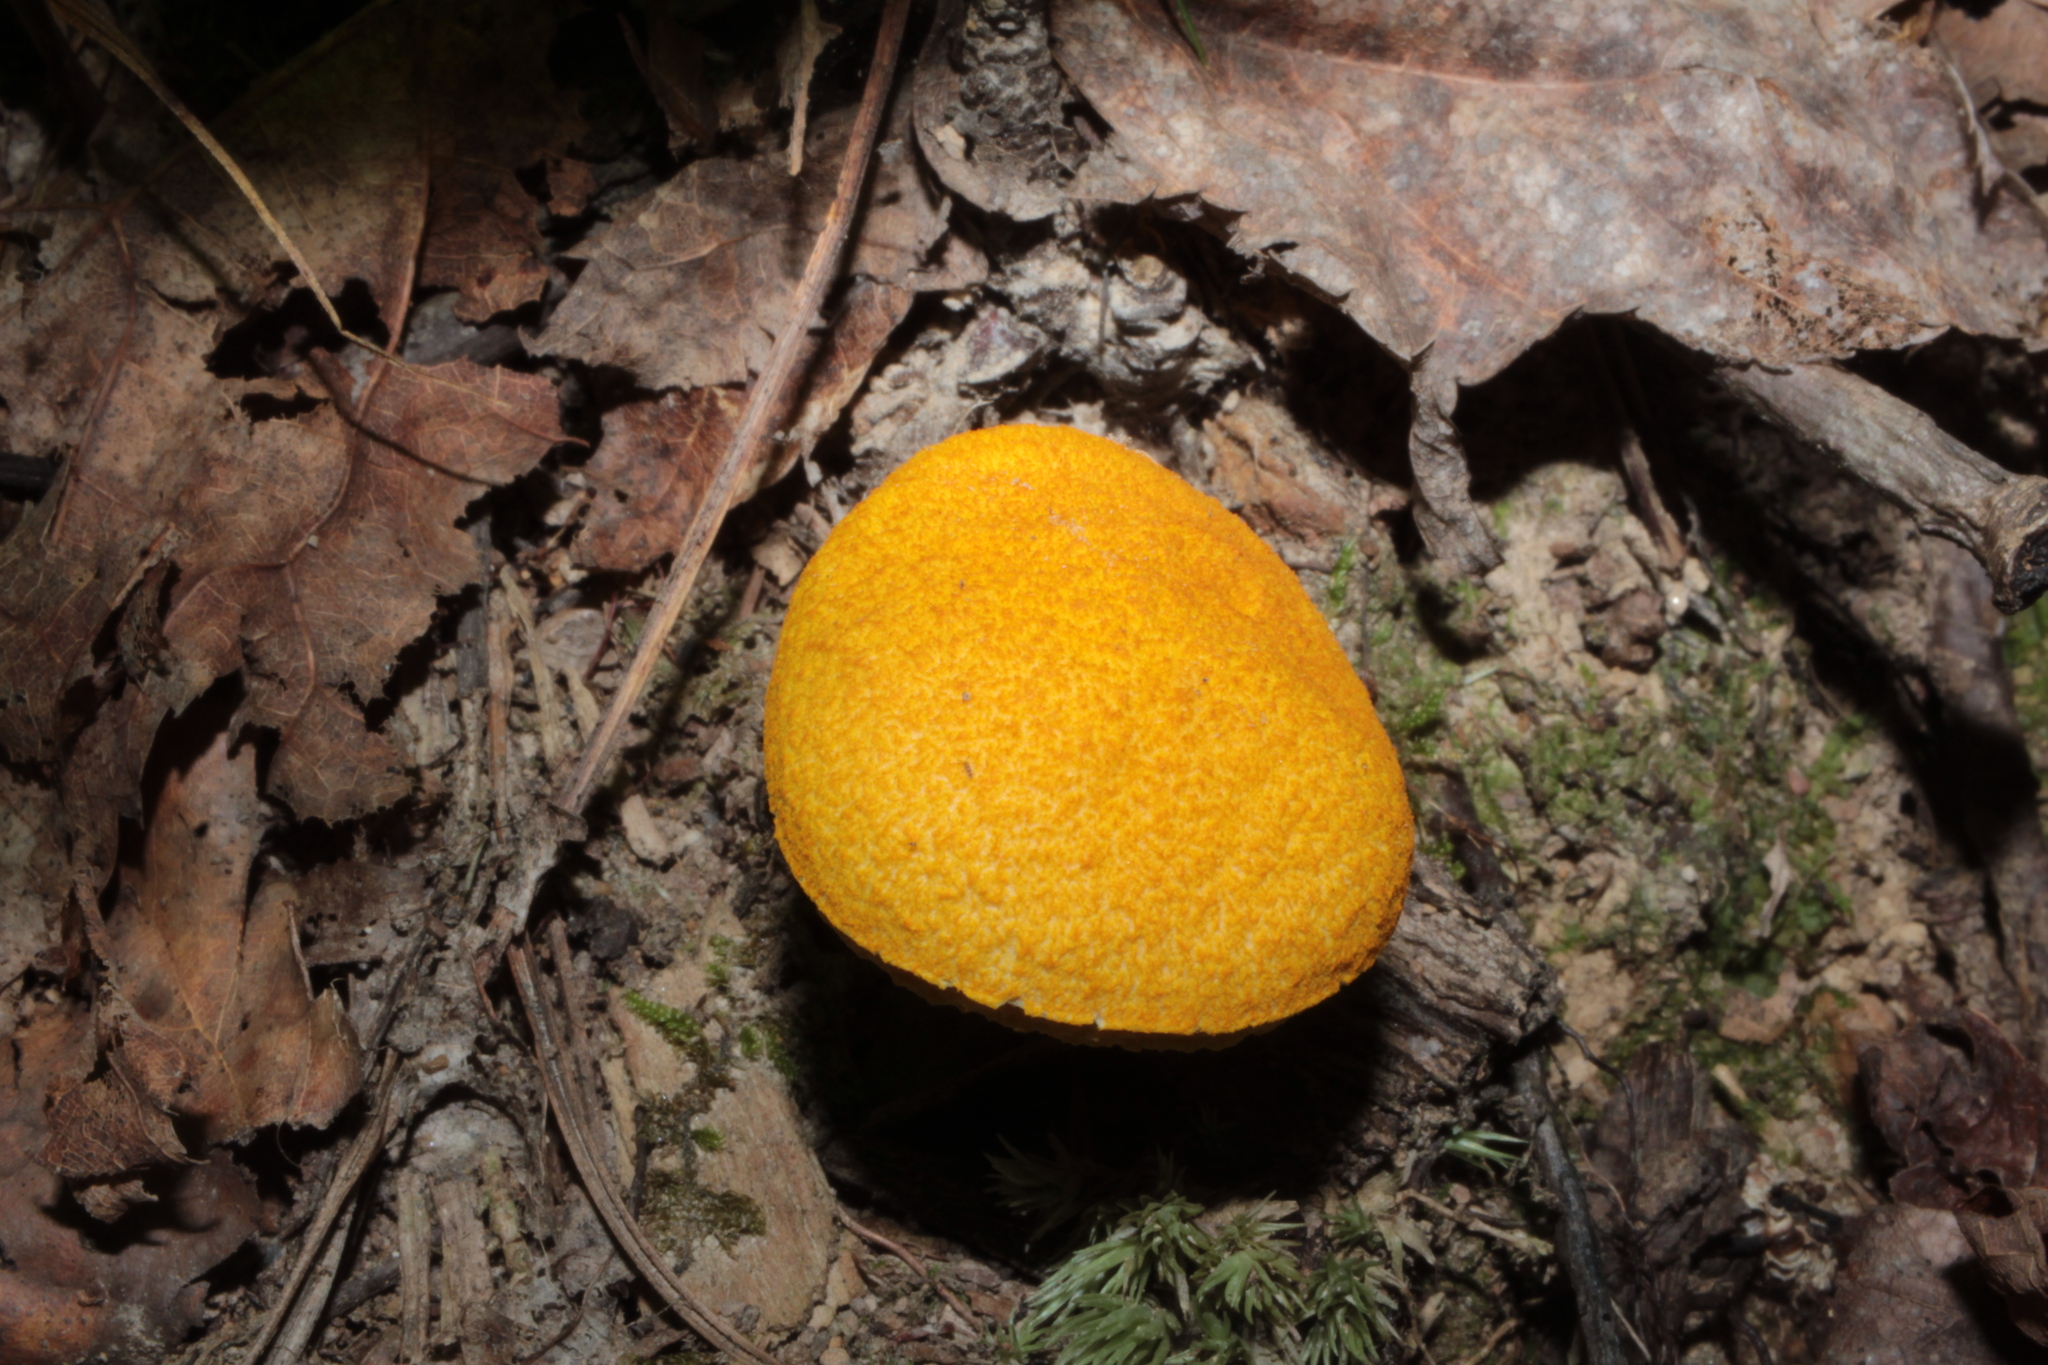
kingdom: Fungi
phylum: Basidiomycota
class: Agaricomycetes
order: Boletales
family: Boletaceae
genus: Aureoboletus
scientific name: Aureoboletus auriflammeus
